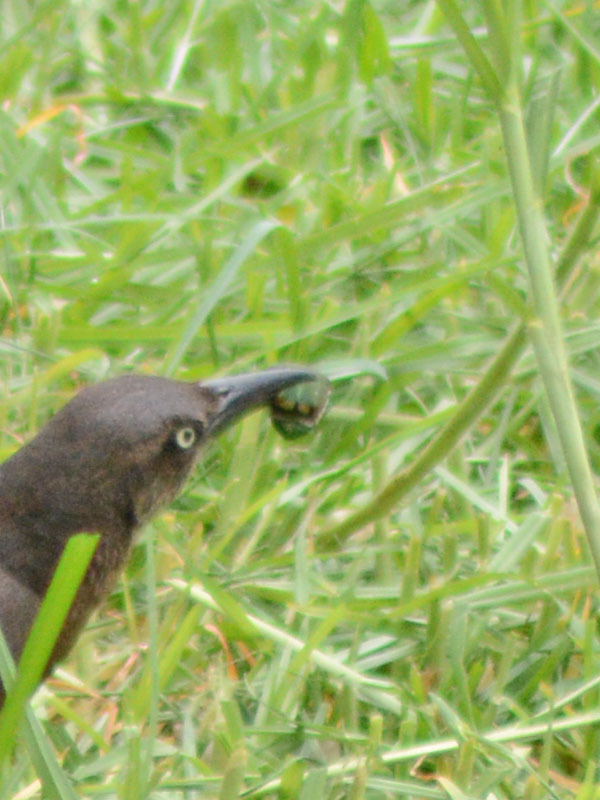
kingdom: Animalia
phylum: Arthropoda
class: Insecta
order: Coleoptera
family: Scarabaeidae
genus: Cotinis
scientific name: Cotinis mutabilis
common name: Figeater beetle
